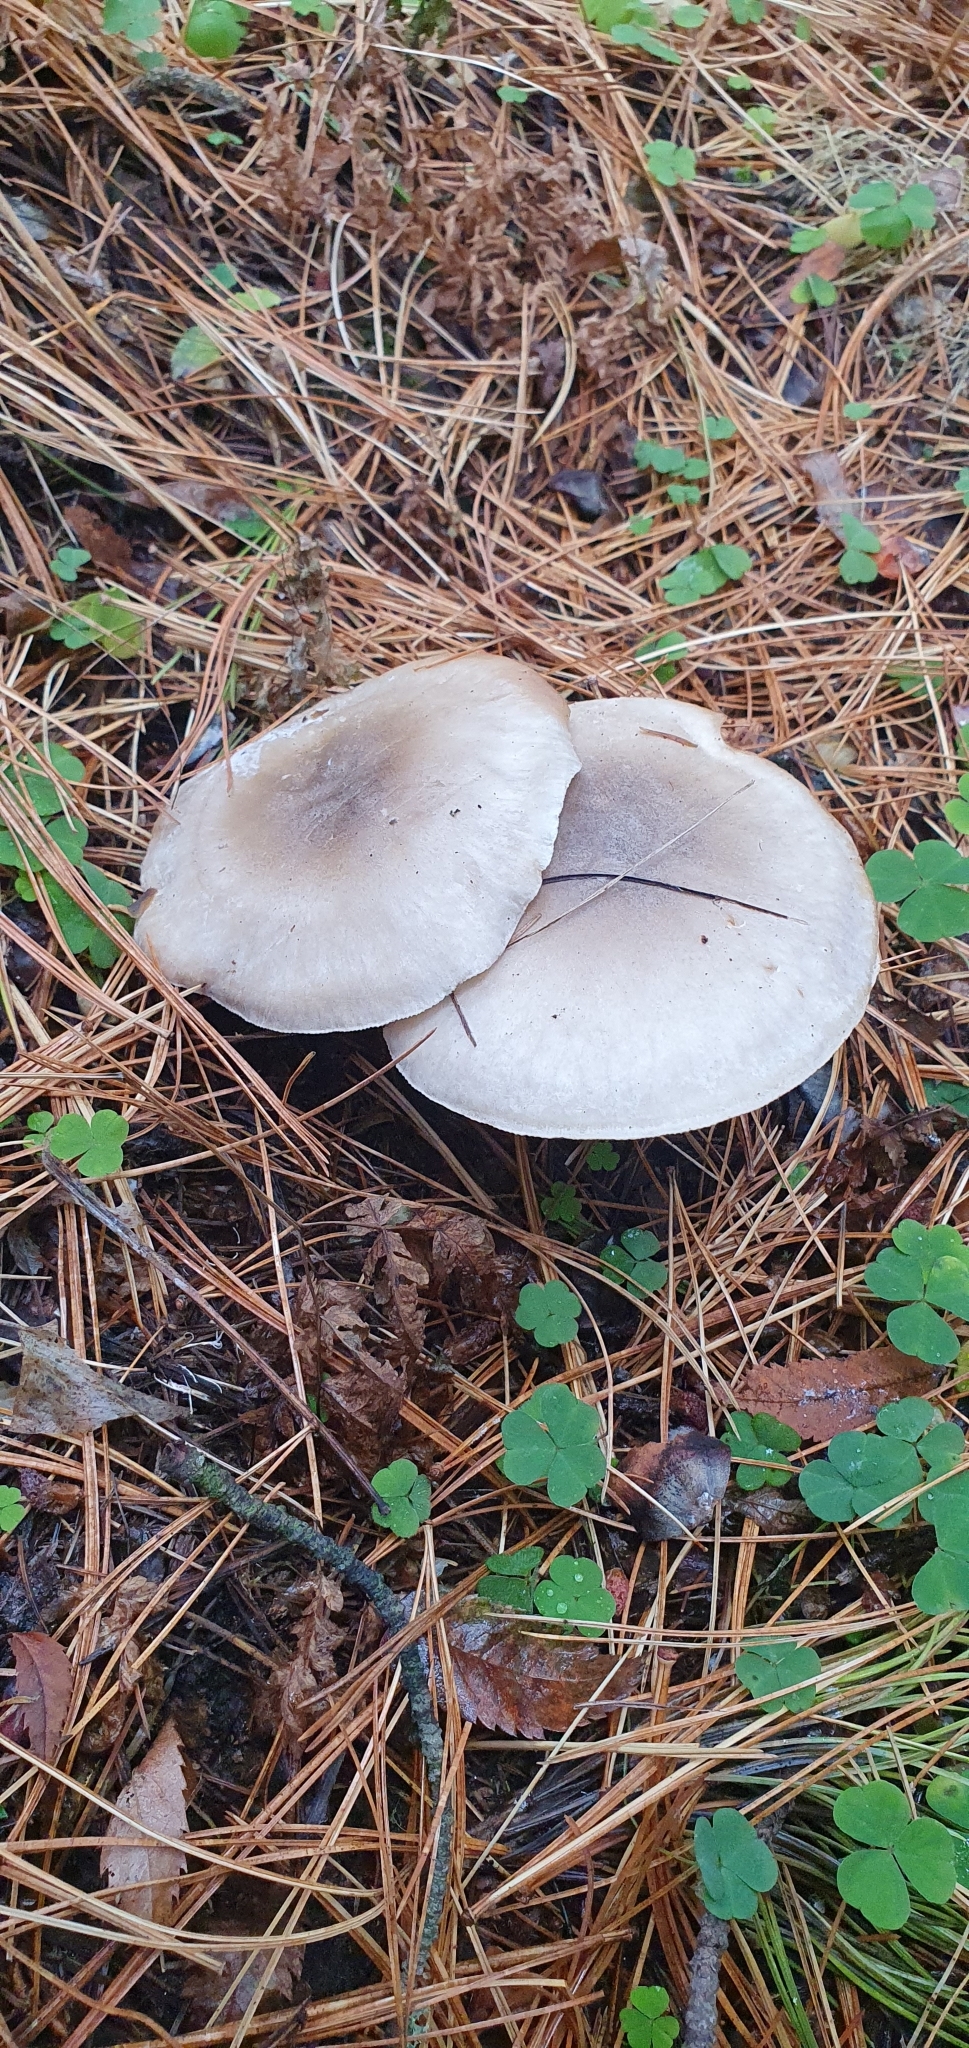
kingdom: Fungi
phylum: Basidiomycota
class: Agaricomycetes
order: Agaricales
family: Tricholomataceae
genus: Clitocybe
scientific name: Clitocybe nebularis
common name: Clouded agaric
